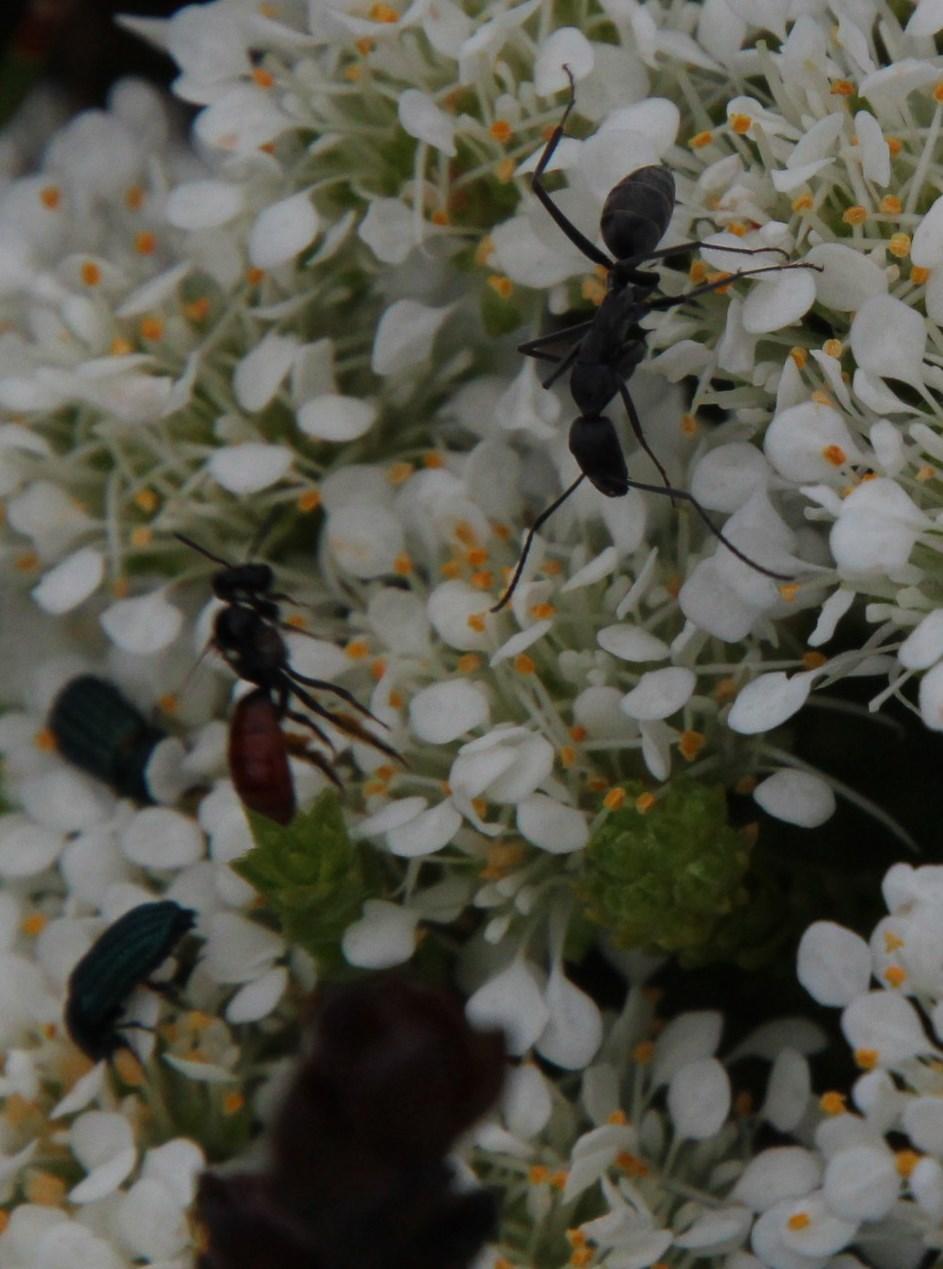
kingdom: Animalia
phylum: Arthropoda
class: Insecta
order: Hymenoptera
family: Apidae
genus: Apidae
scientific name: Apidae
